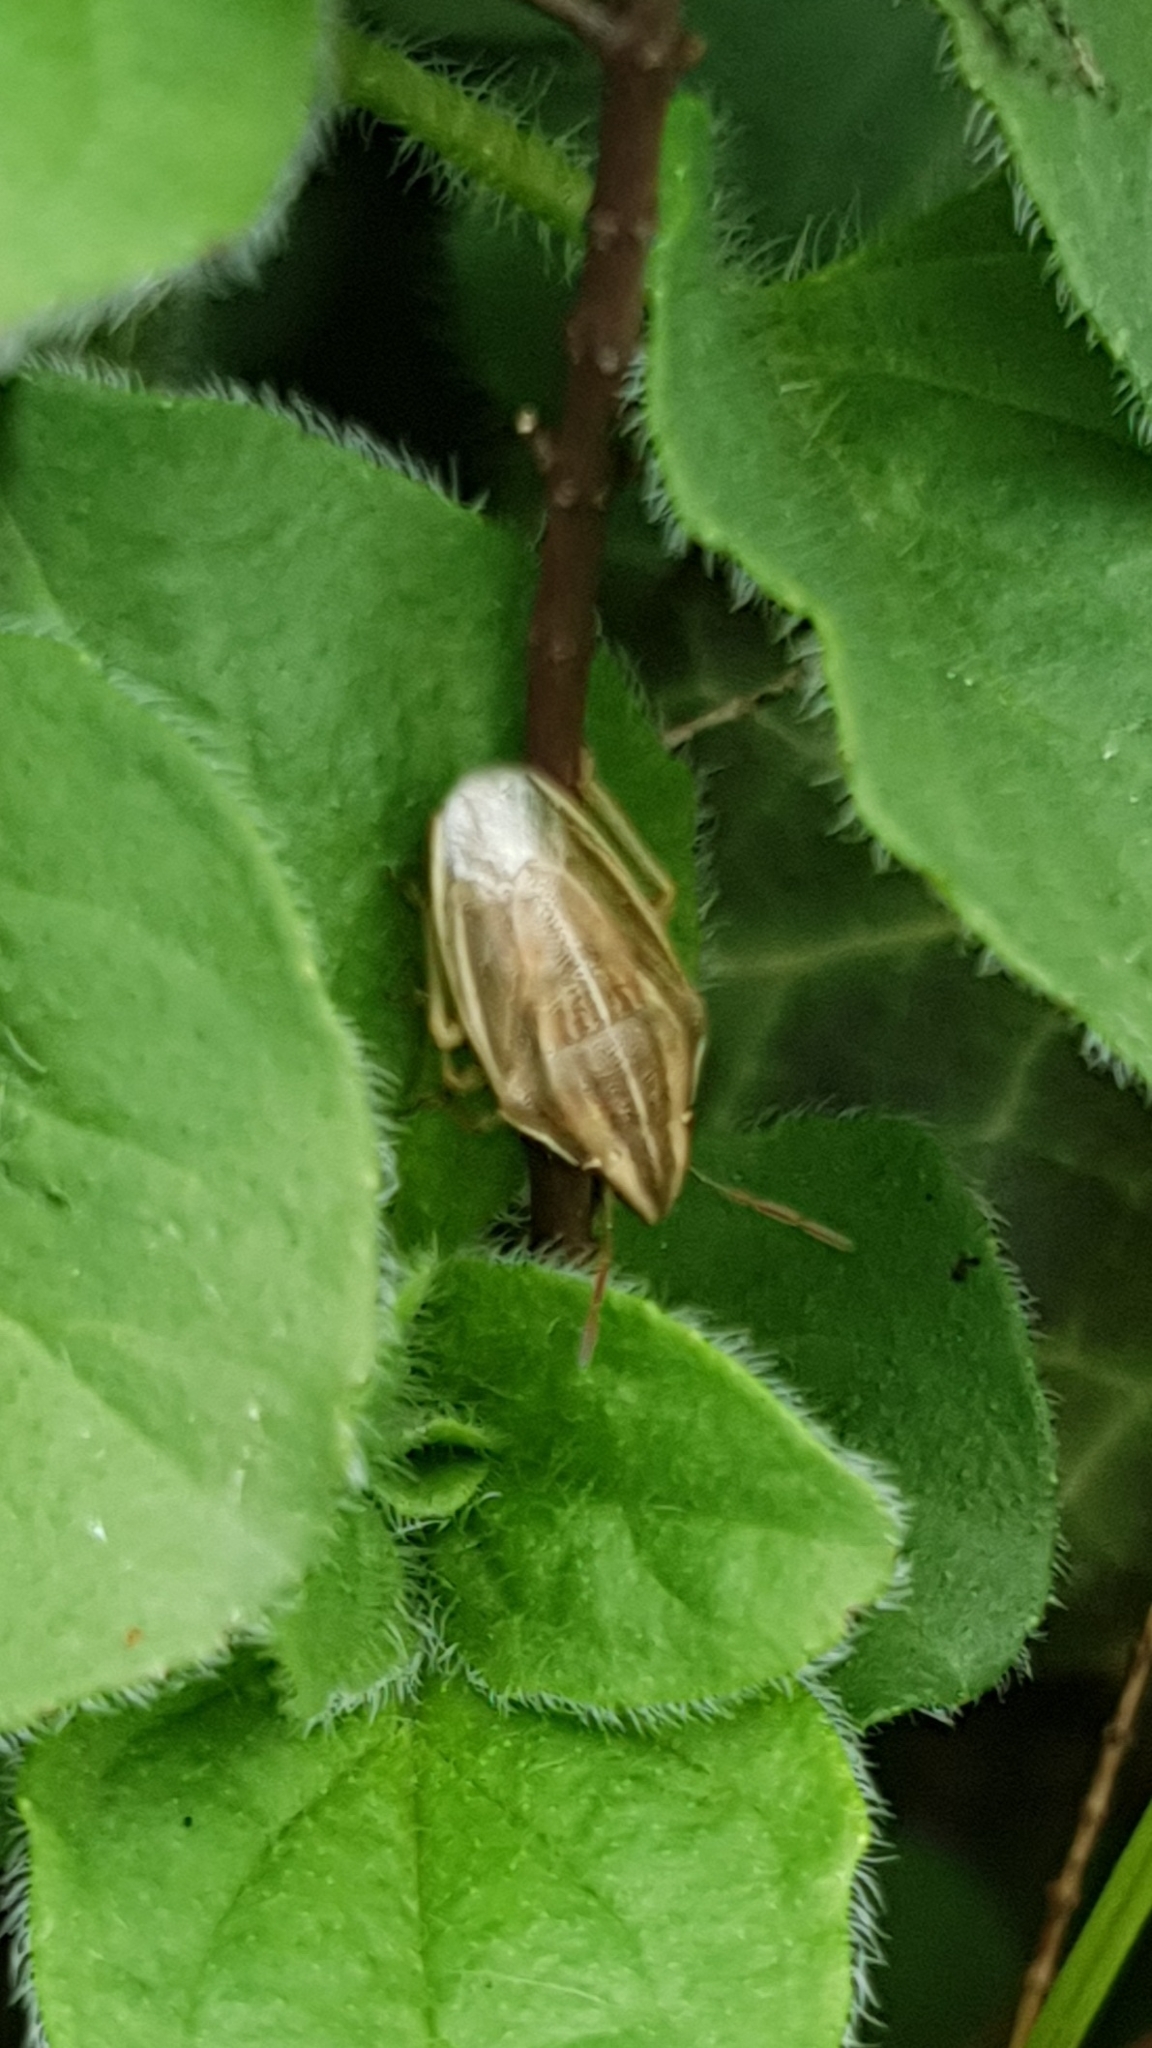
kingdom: Animalia
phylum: Arthropoda
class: Insecta
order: Hemiptera
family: Pentatomidae
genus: Aelia
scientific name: Aelia acuminata
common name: Bishop's mitre
